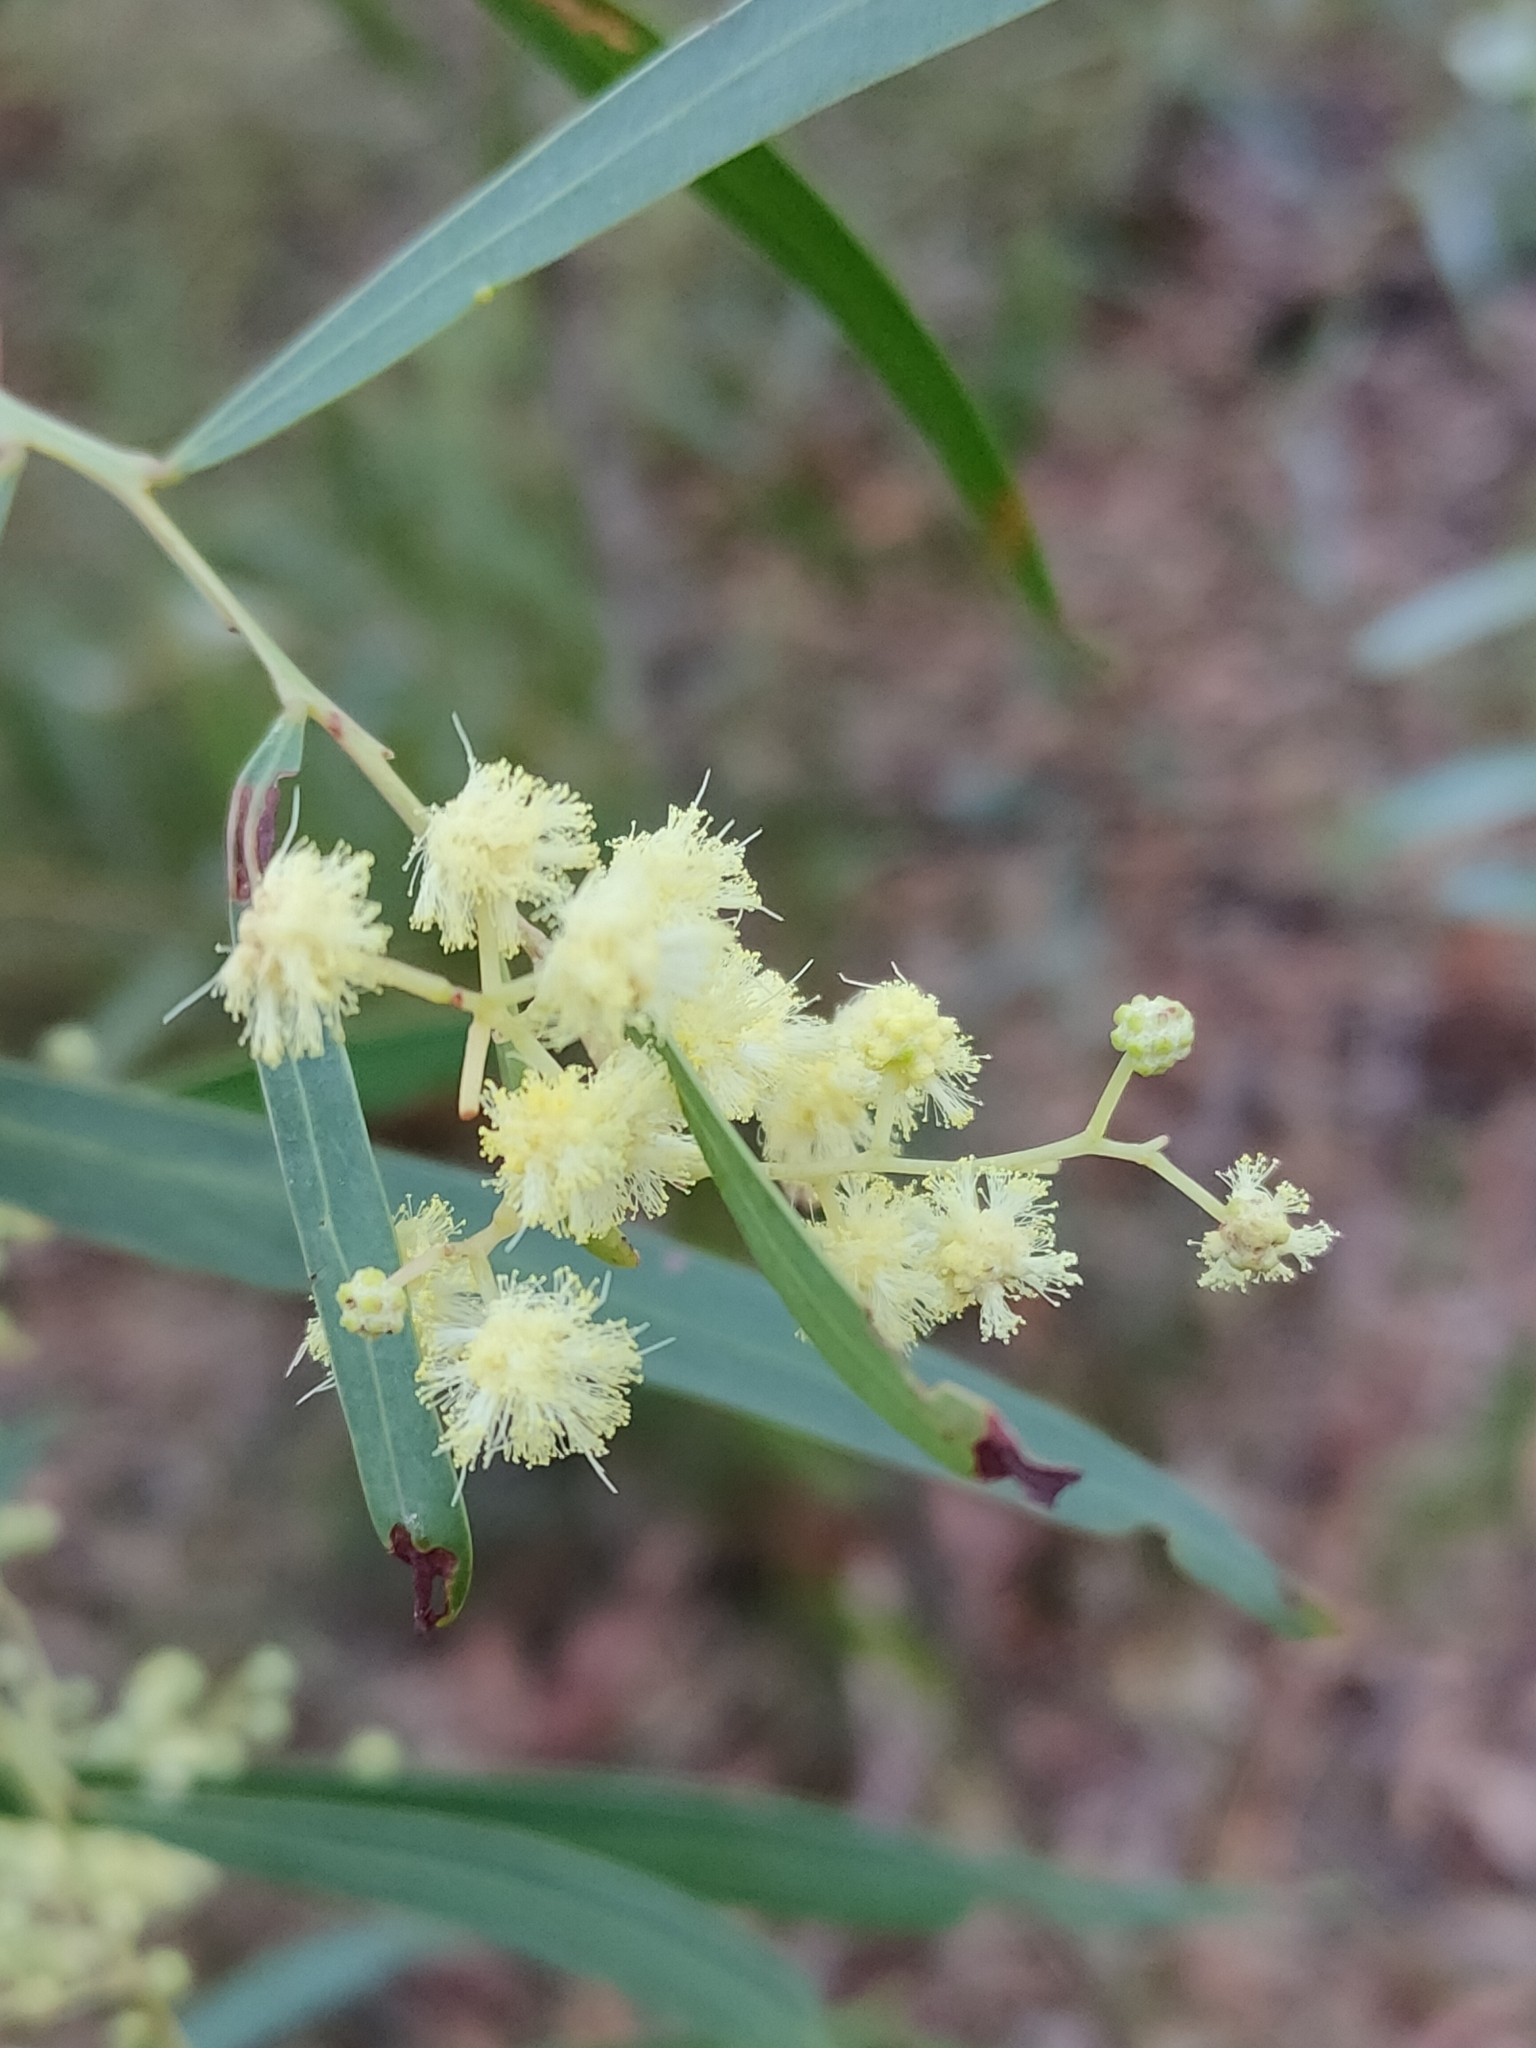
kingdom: Plantae
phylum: Tracheophyta
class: Magnoliopsida
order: Fabales
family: Fabaceae
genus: Acacia
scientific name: Acacia saliciformis
